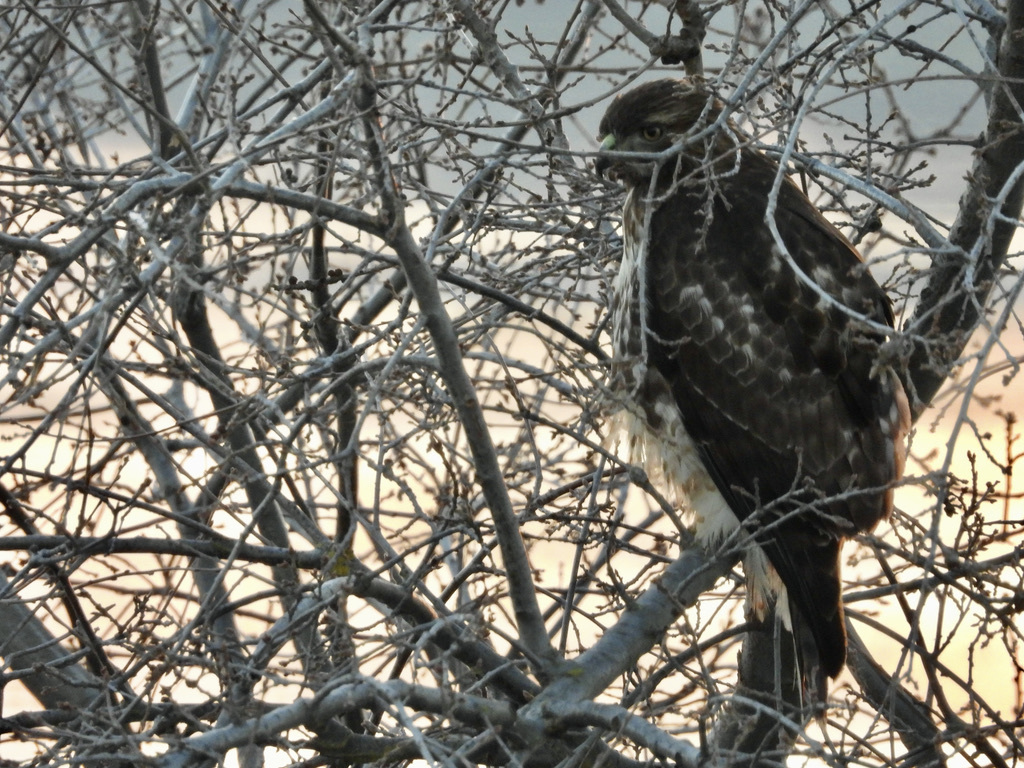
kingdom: Animalia
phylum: Chordata
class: Aves
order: Accipitriformes
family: Accipitridae
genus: Buteo
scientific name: Buteo jamaicensis
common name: Red-tailed hawk
